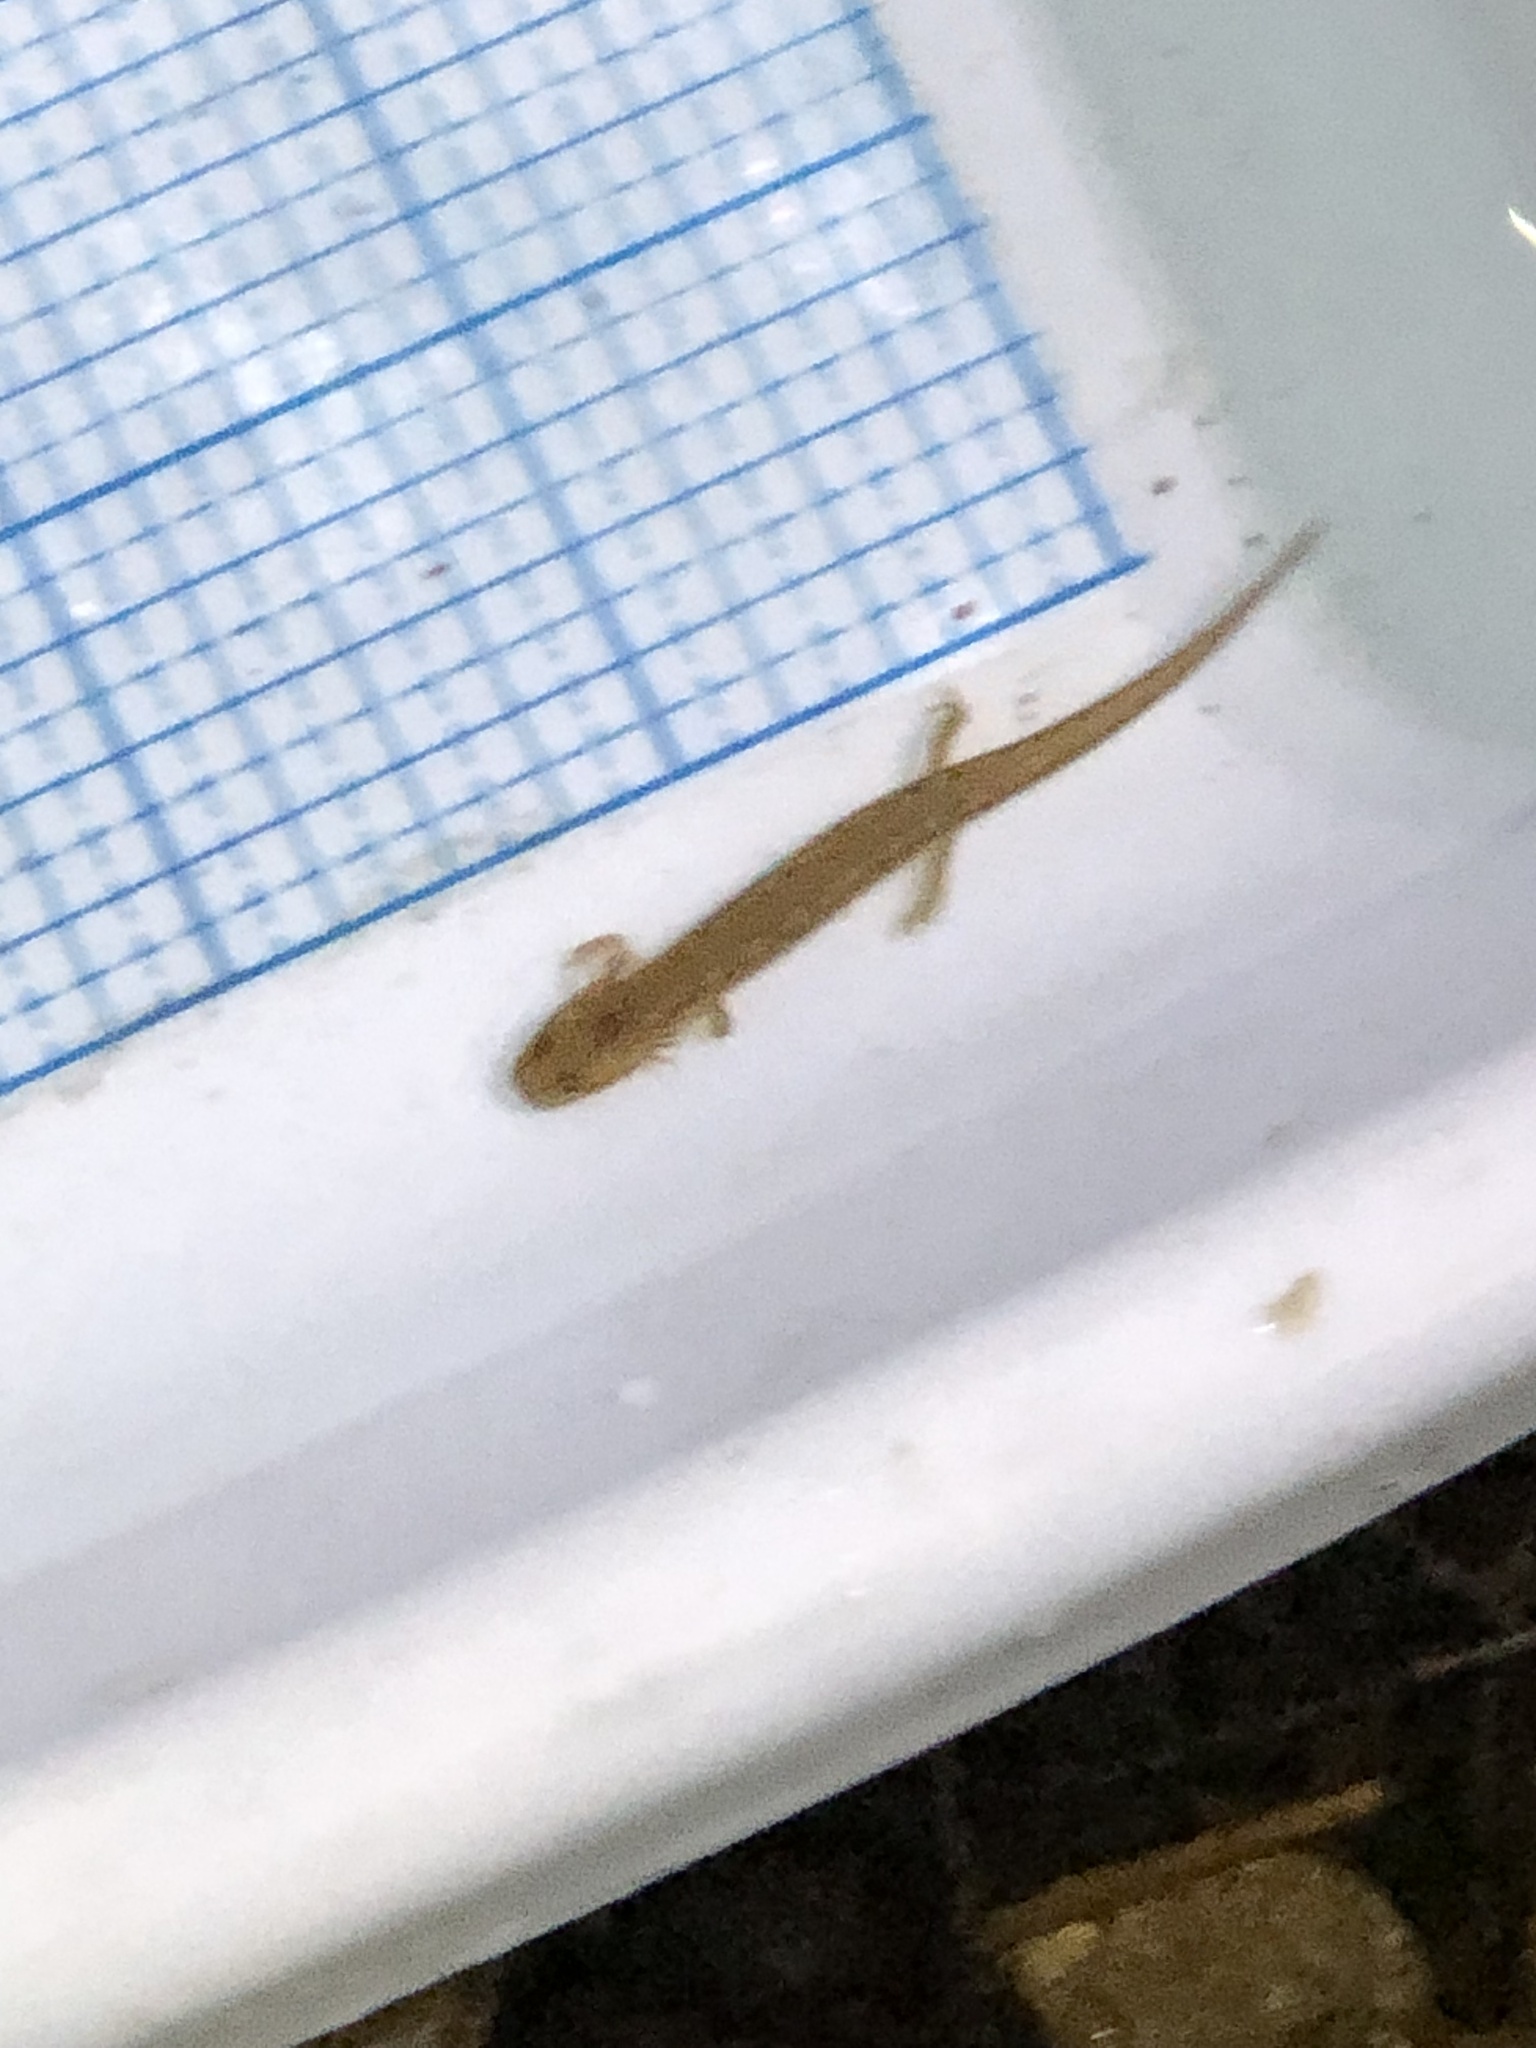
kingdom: Animalia
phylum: Chordata
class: Amphibia
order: Caudata
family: Plethodontidae
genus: Eurycea
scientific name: Eurycea bislineata
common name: Northern two-lined salamander
